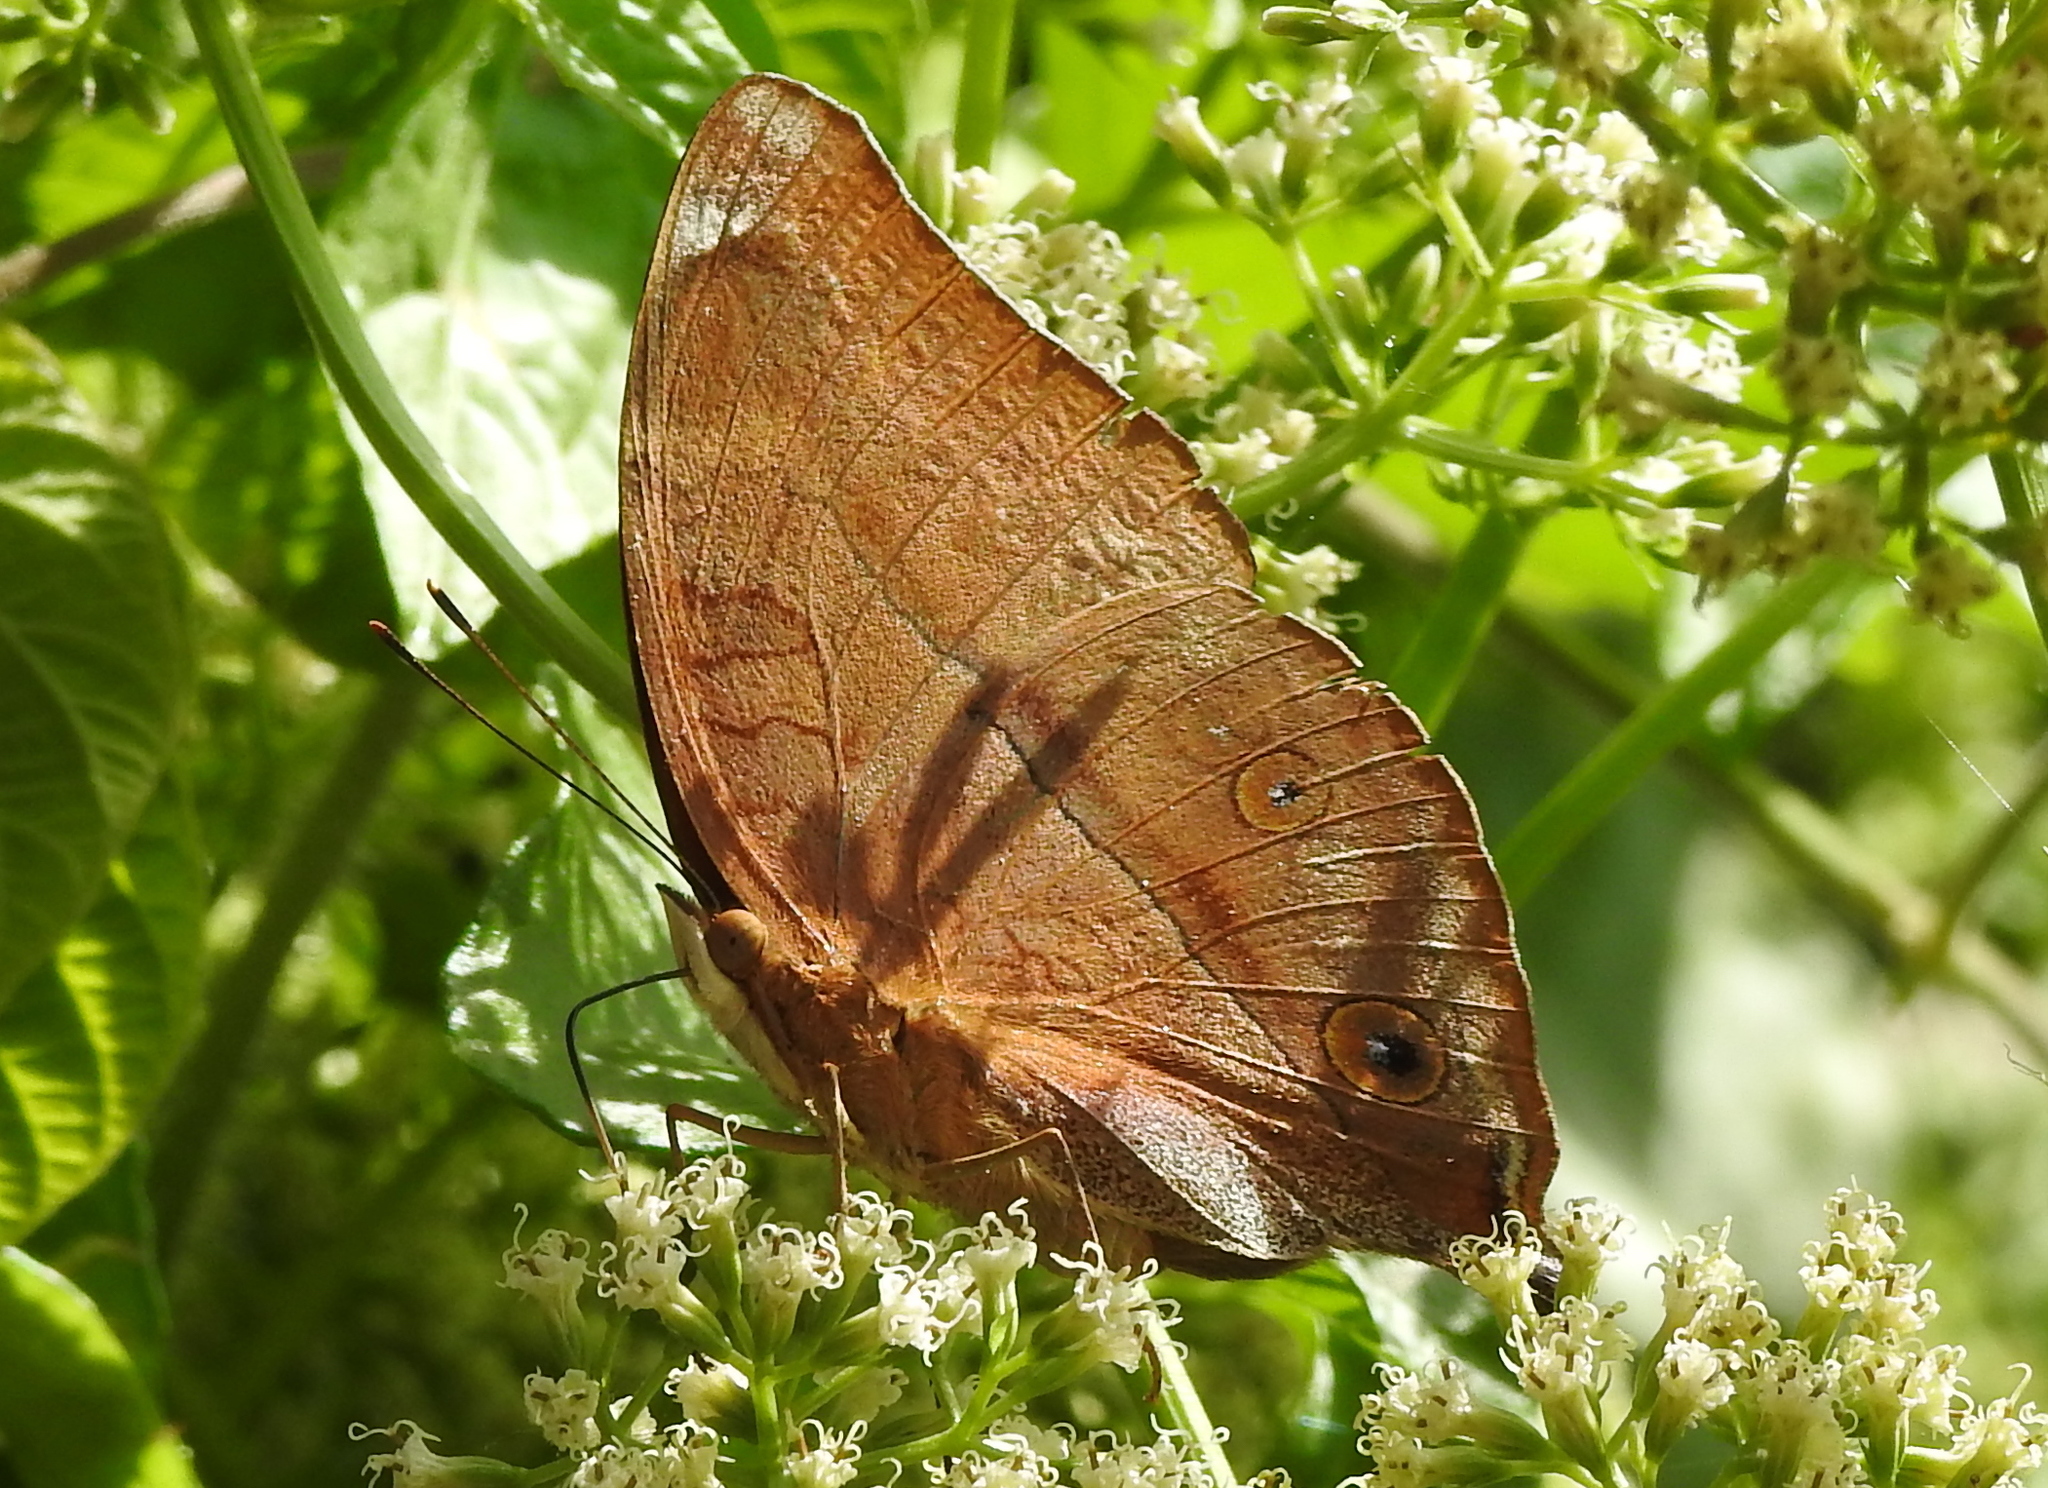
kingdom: Animalia
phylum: Arthropoda
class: Insecta
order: Lepidoptera
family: Nymphalidae
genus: Doleschallia
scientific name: Doleschallia bisaltide
